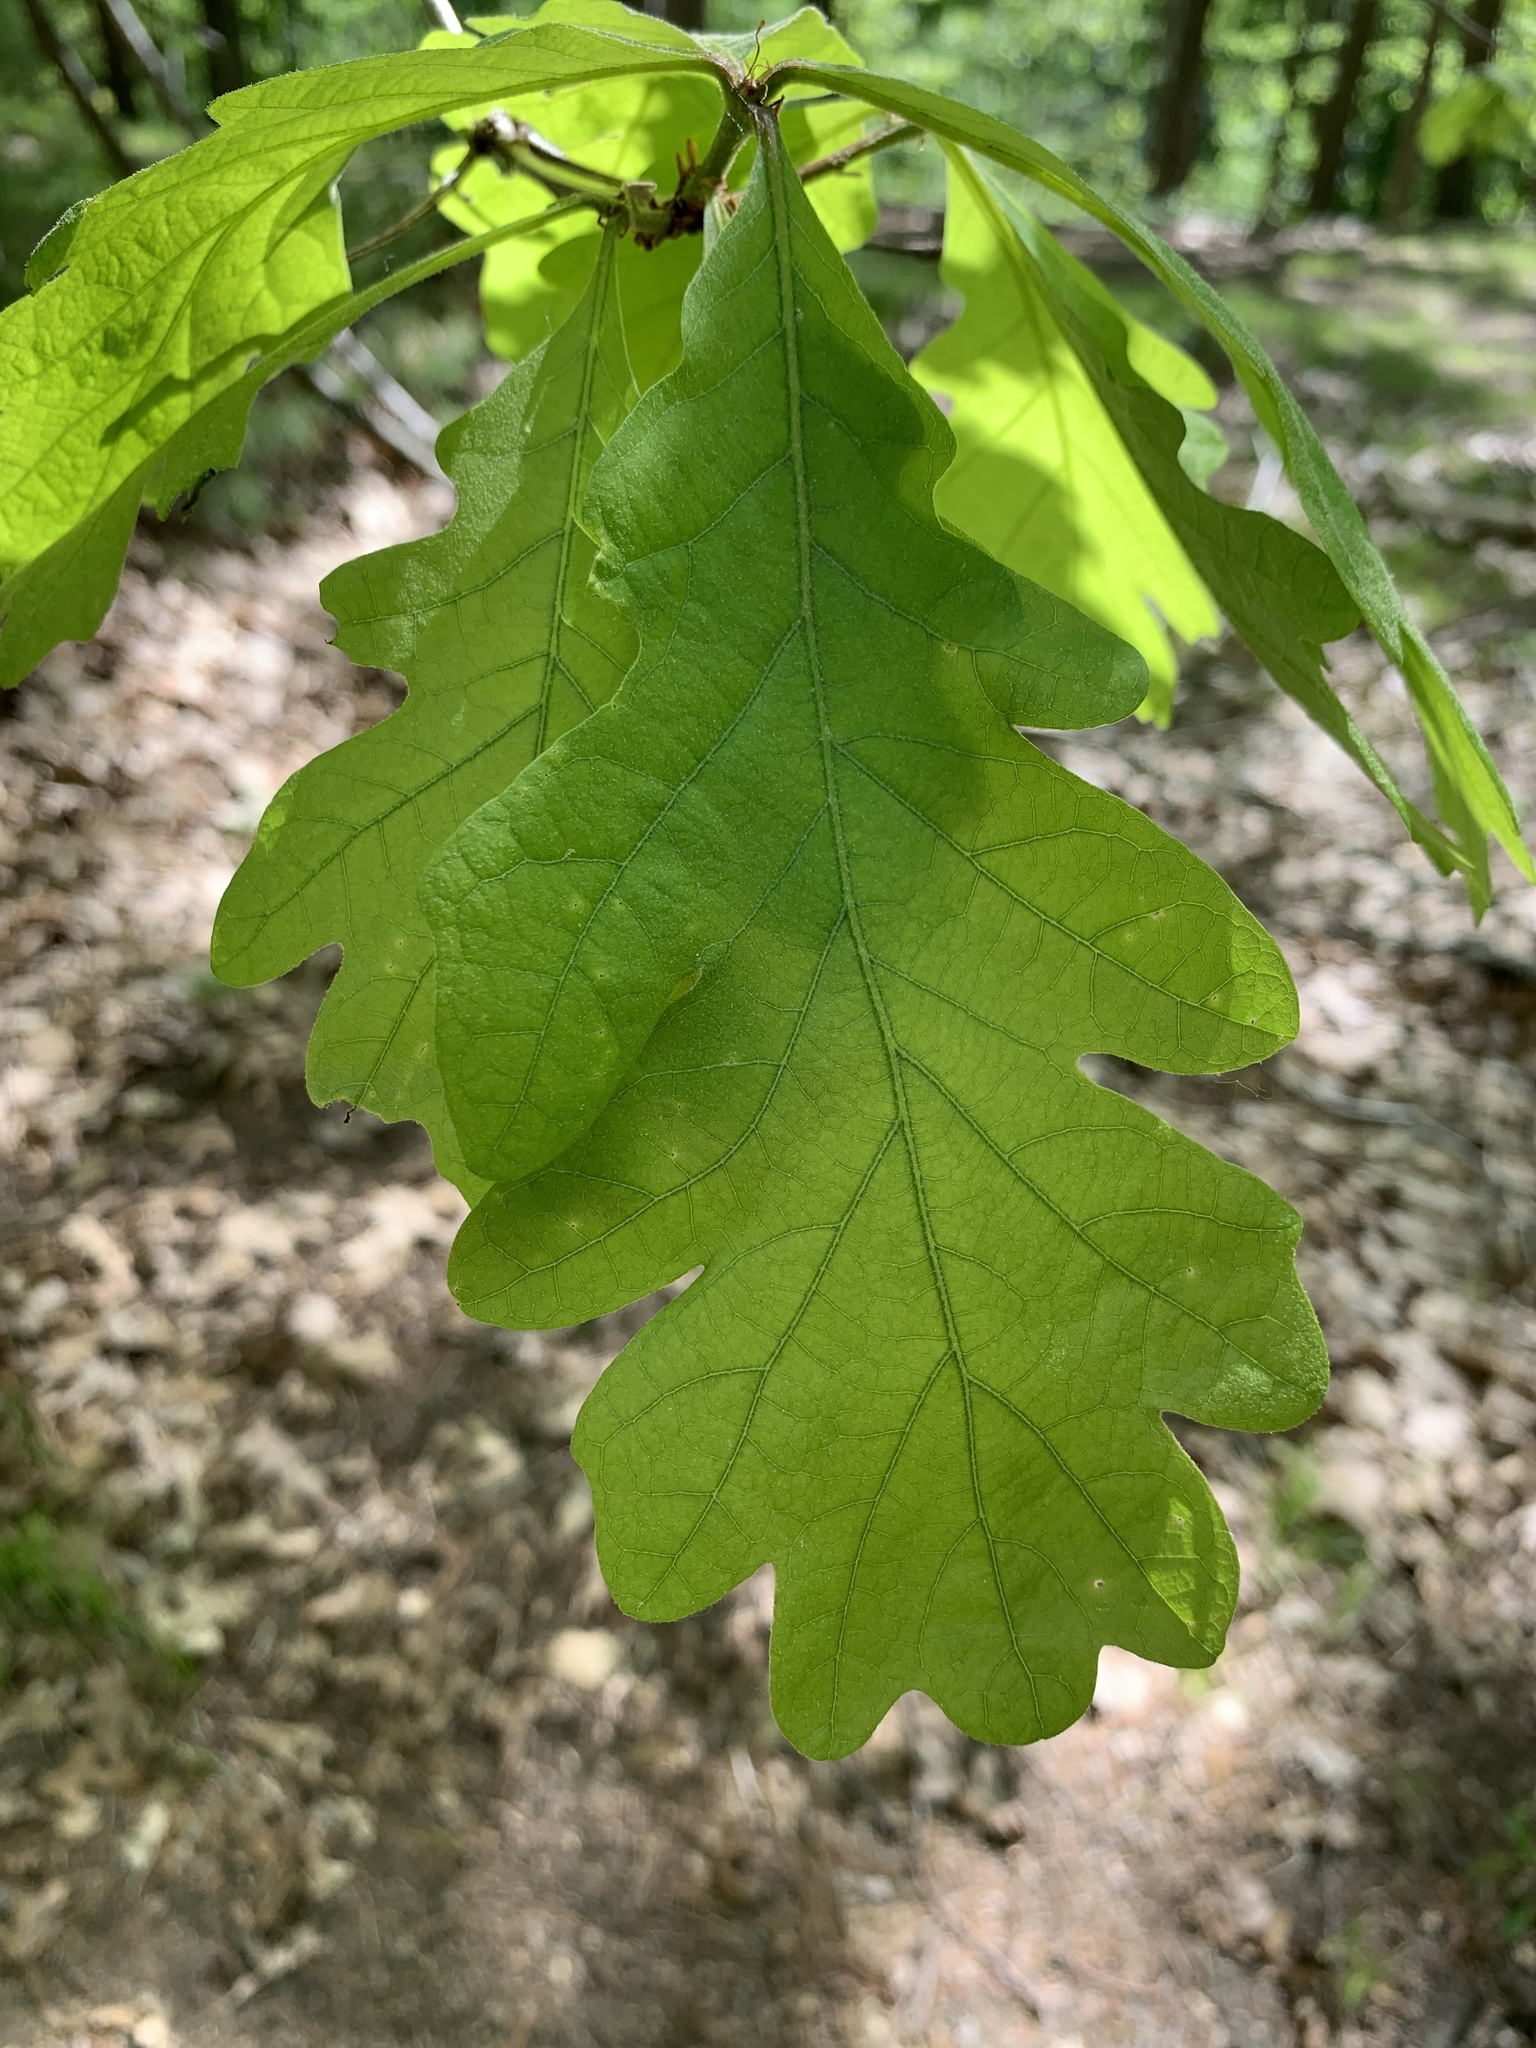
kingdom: Plantae
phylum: Tracheophyta
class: Magnoliopsida
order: Fagales
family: Fagaceae
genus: Quercus
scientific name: Quercus alba
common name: White oak
